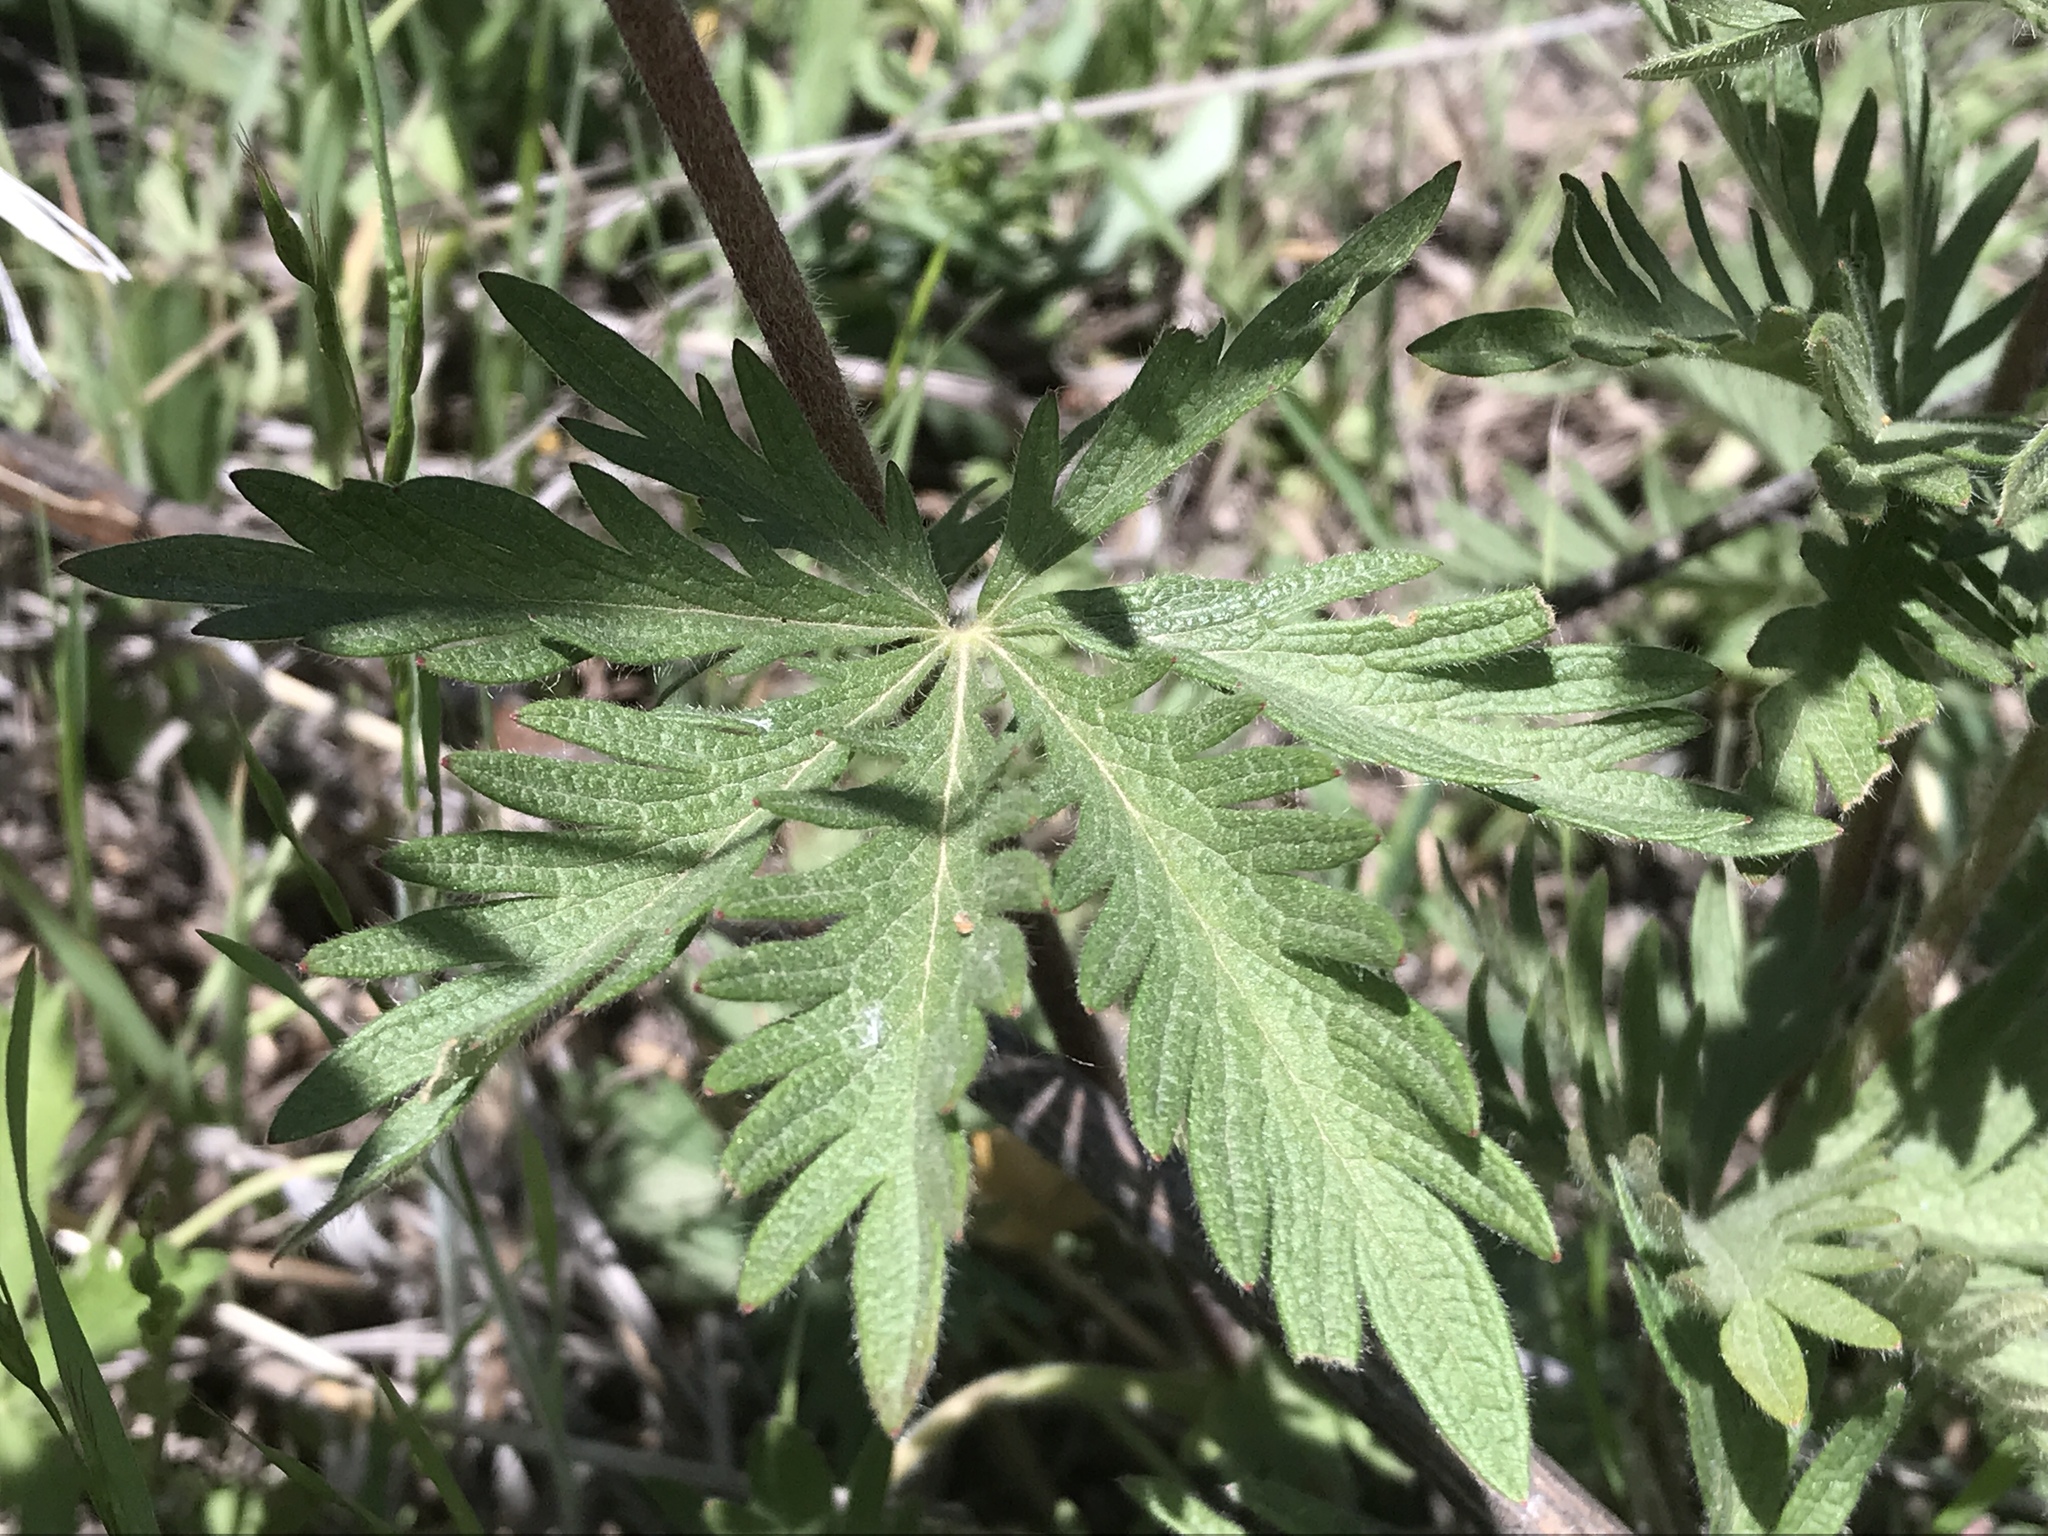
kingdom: Plantae
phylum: Tracheophyta
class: Magnoliopsida
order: Rosales
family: Rosaceae
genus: Potentilla
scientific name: Potentilla gracilis
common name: Graceful cinquefoil
